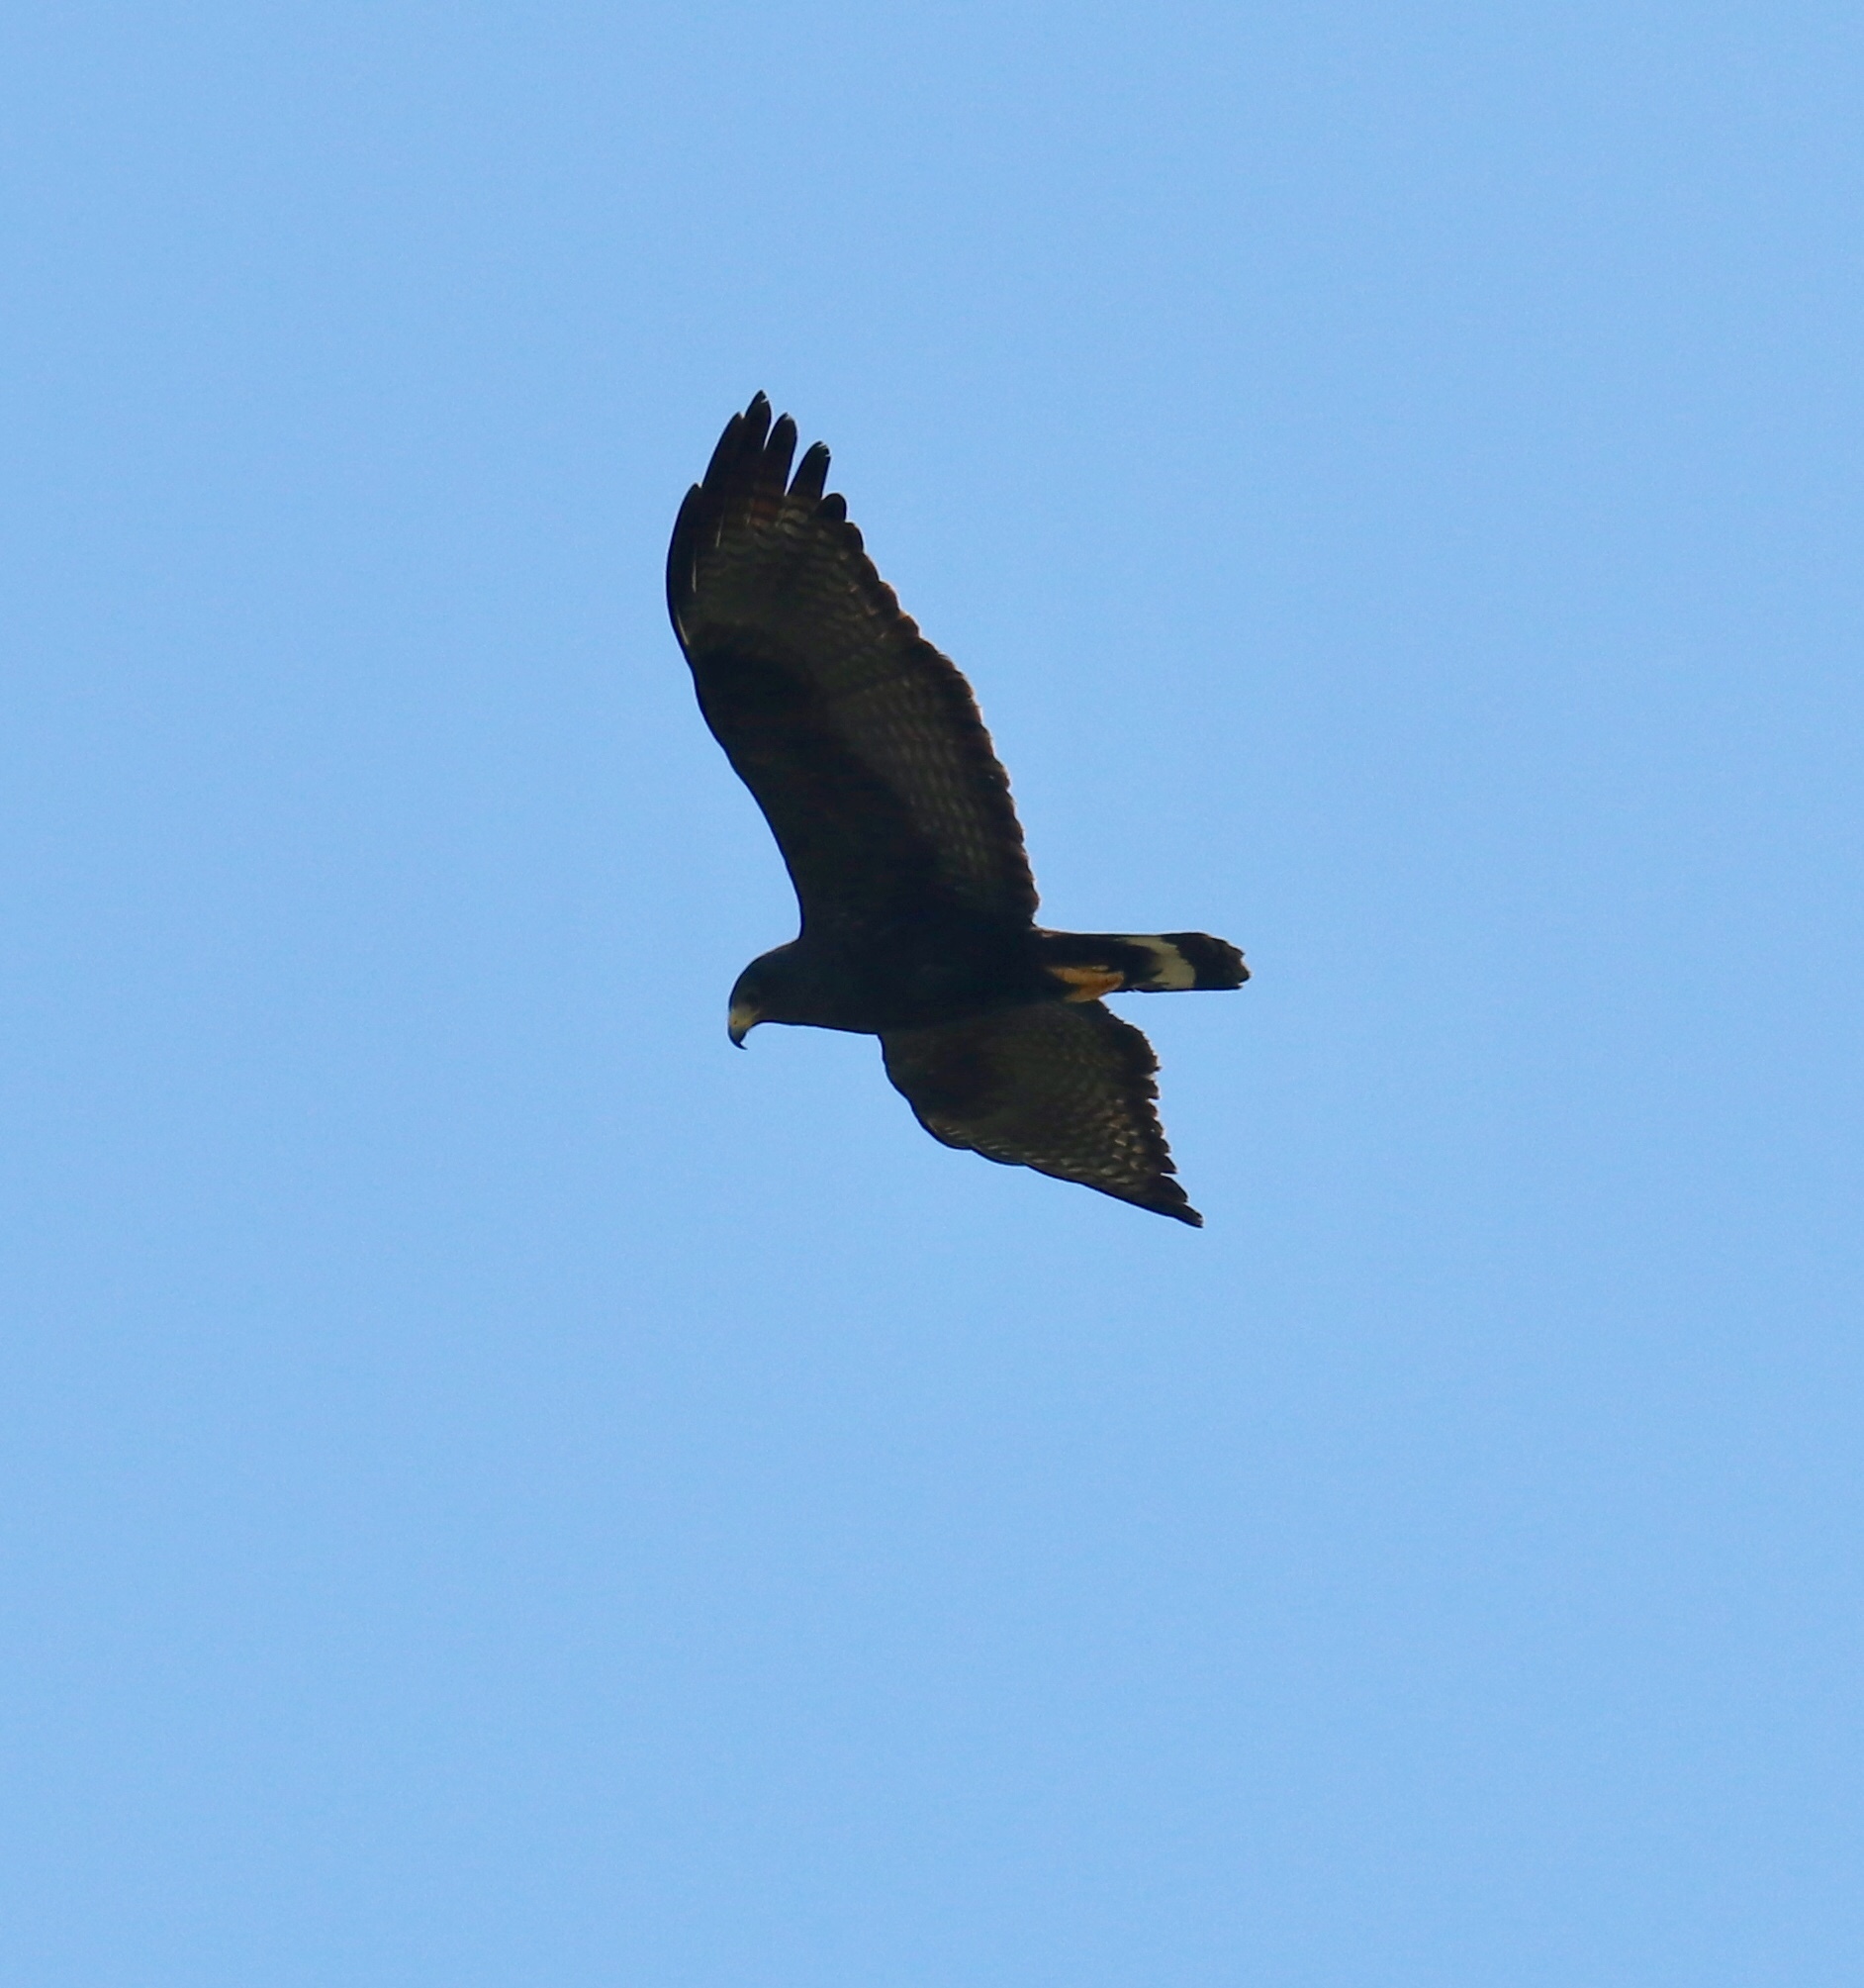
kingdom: Animalia
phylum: Chordata
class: Aves
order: Accipitriformes
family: Accipitridae
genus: Buteo
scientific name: Buteo albonotatus
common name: Zone-tailed hawk
